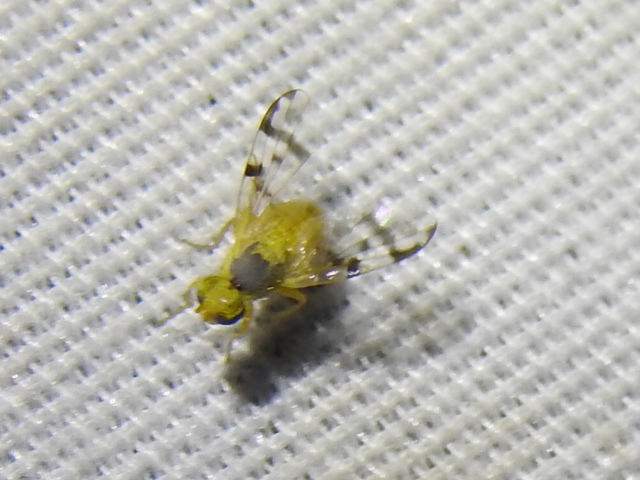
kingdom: Animalia
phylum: Arthropoda
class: Insecta
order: Diptera
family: Tephritidae
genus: Neaspilota
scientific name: Neaspilota achilleae
